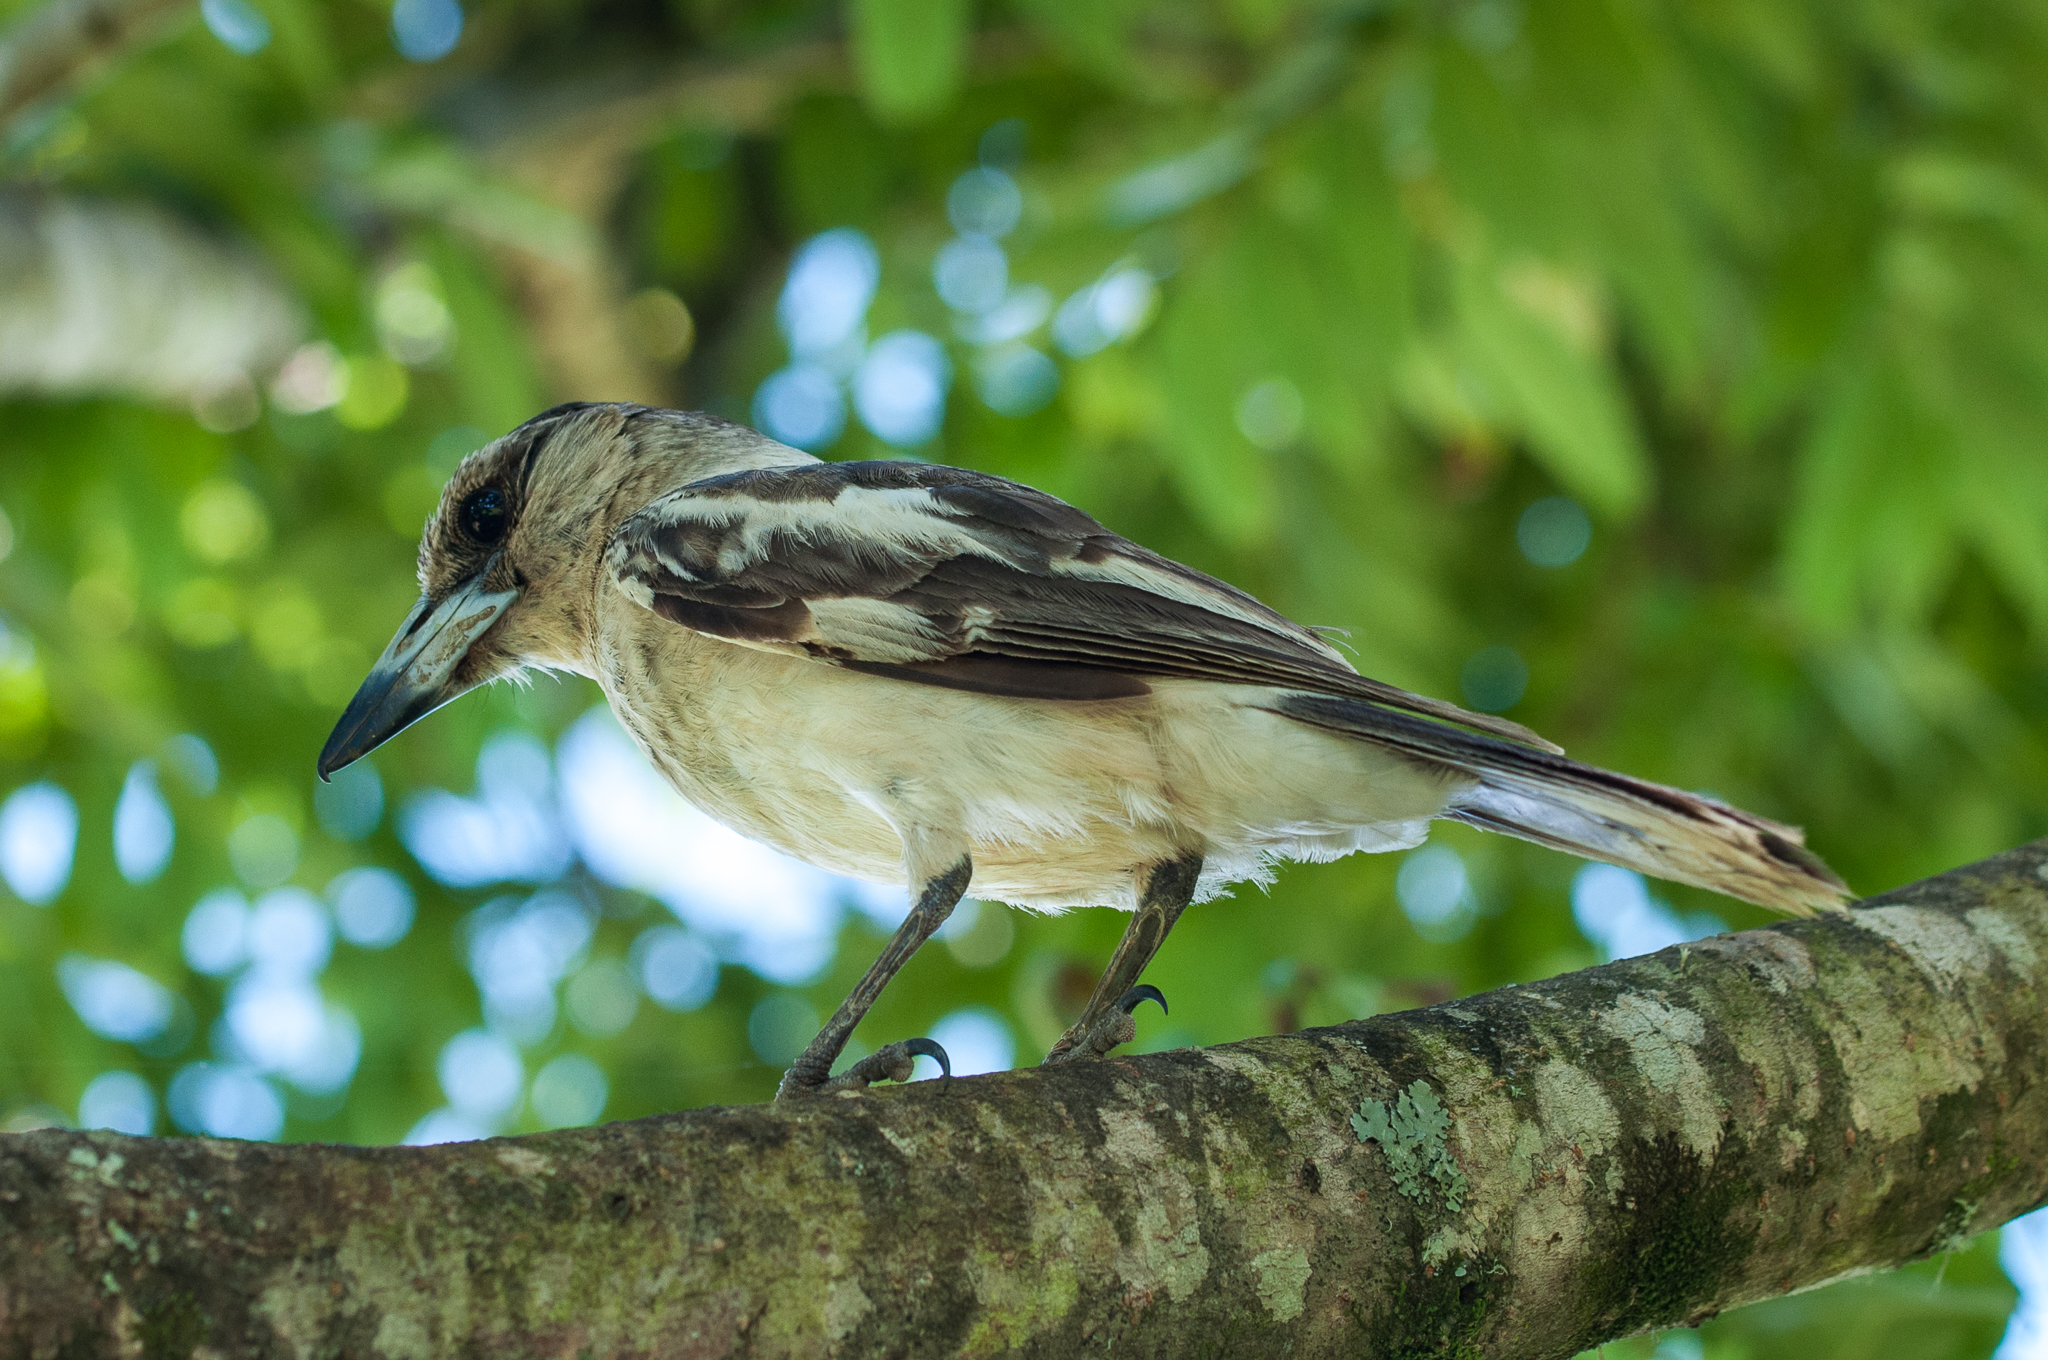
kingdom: Animalia
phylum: Chordata
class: Aves
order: Passeriformes
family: Cracticidae
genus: Cracticus
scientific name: Cracticus nigrogularis
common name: Pied butcherbird
